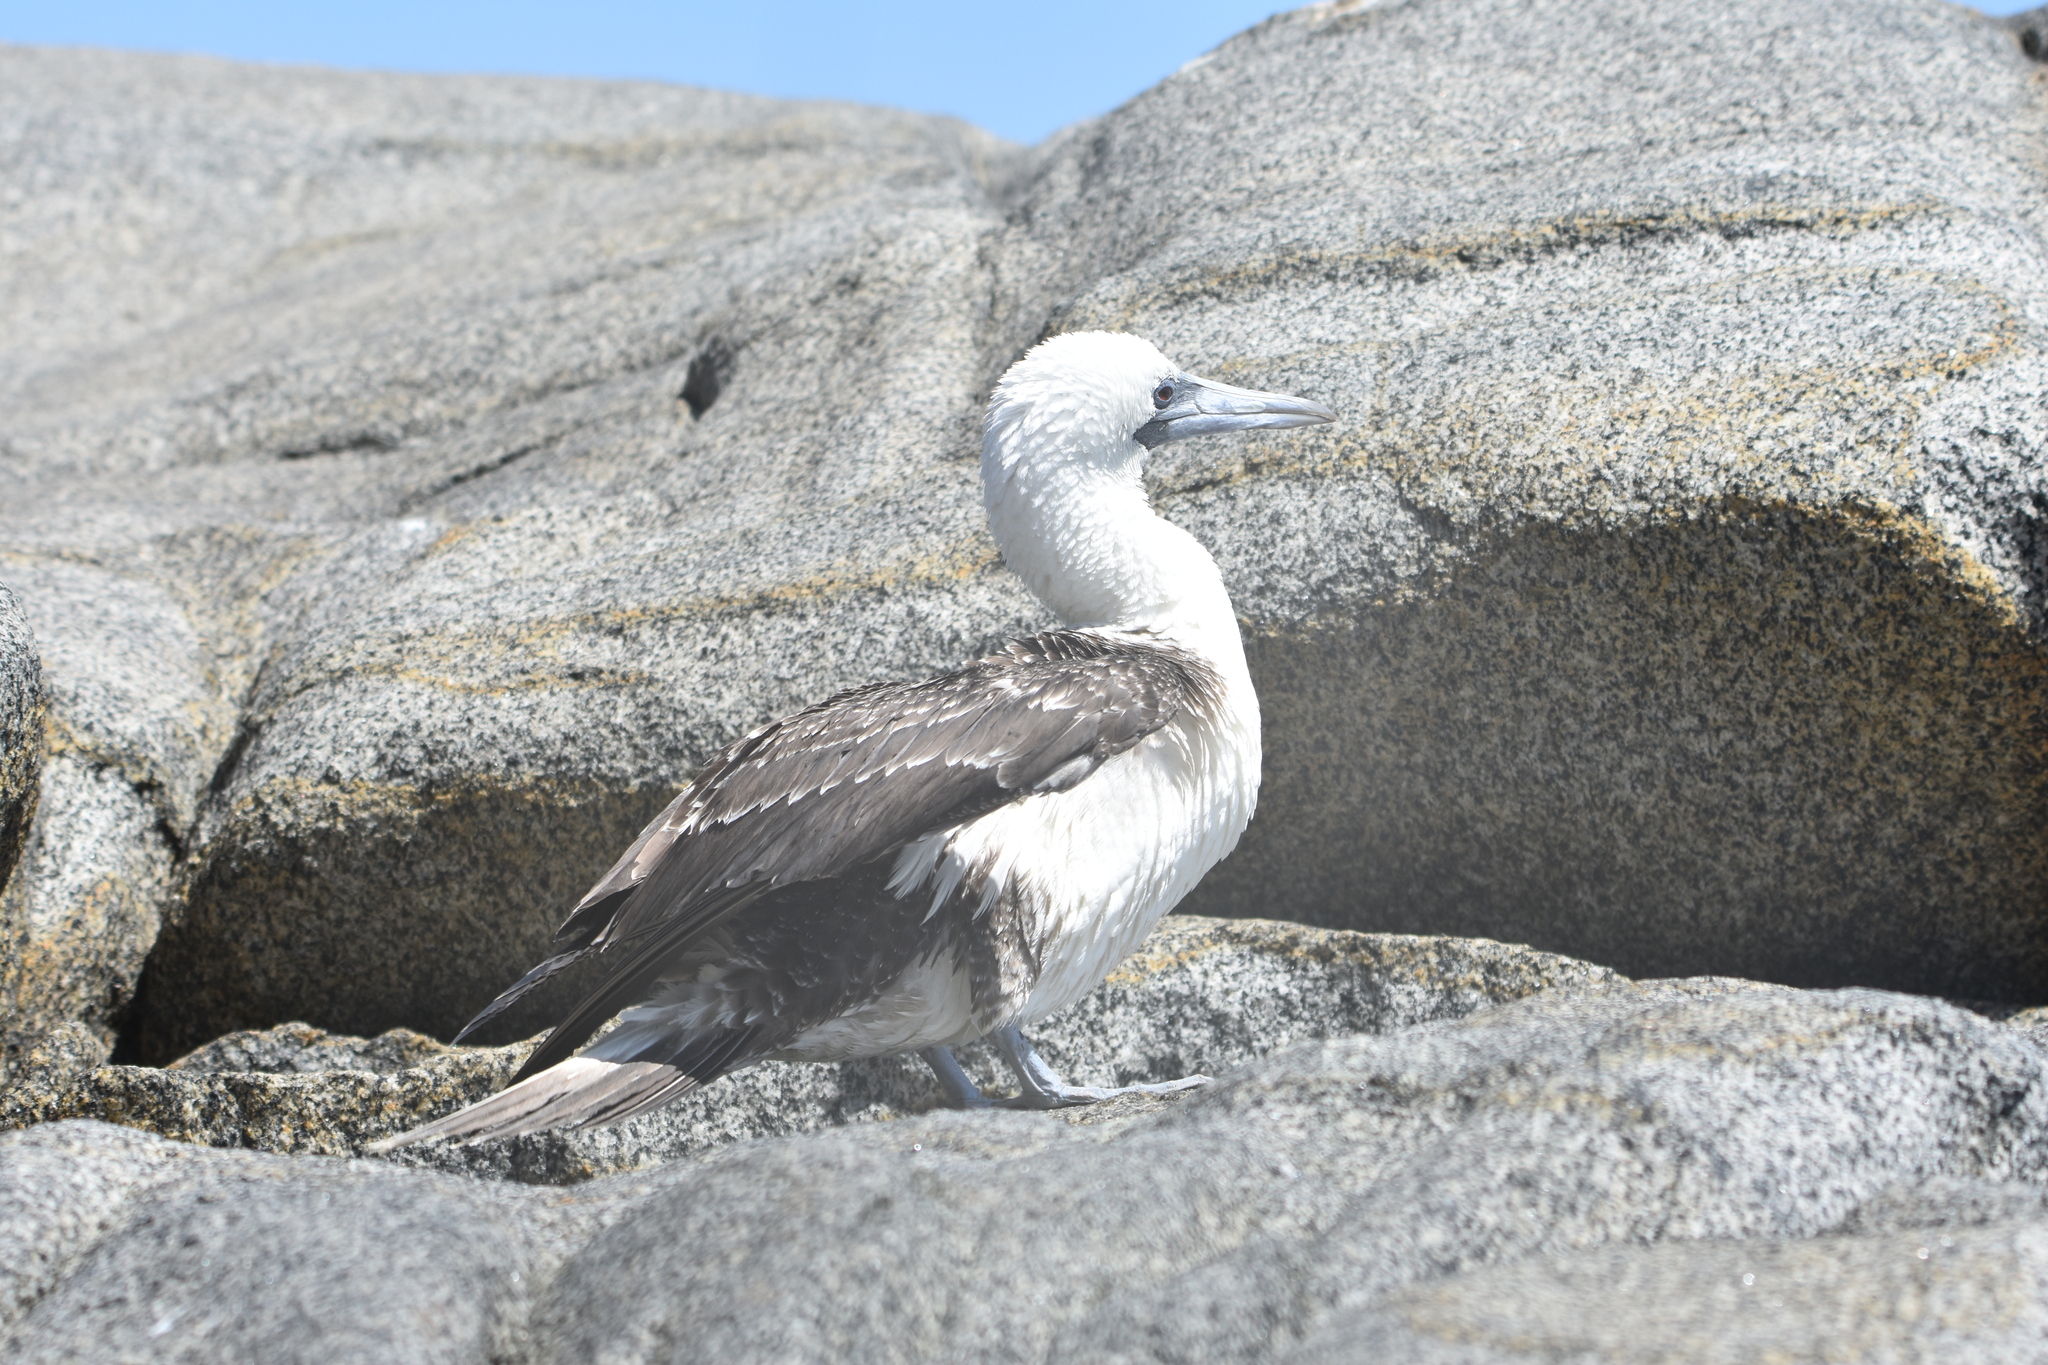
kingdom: Animalia
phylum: Chordata
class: Aves
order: Suliformes
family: Sulidae
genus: Sula
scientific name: Sula variegata
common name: Peruvian booby
